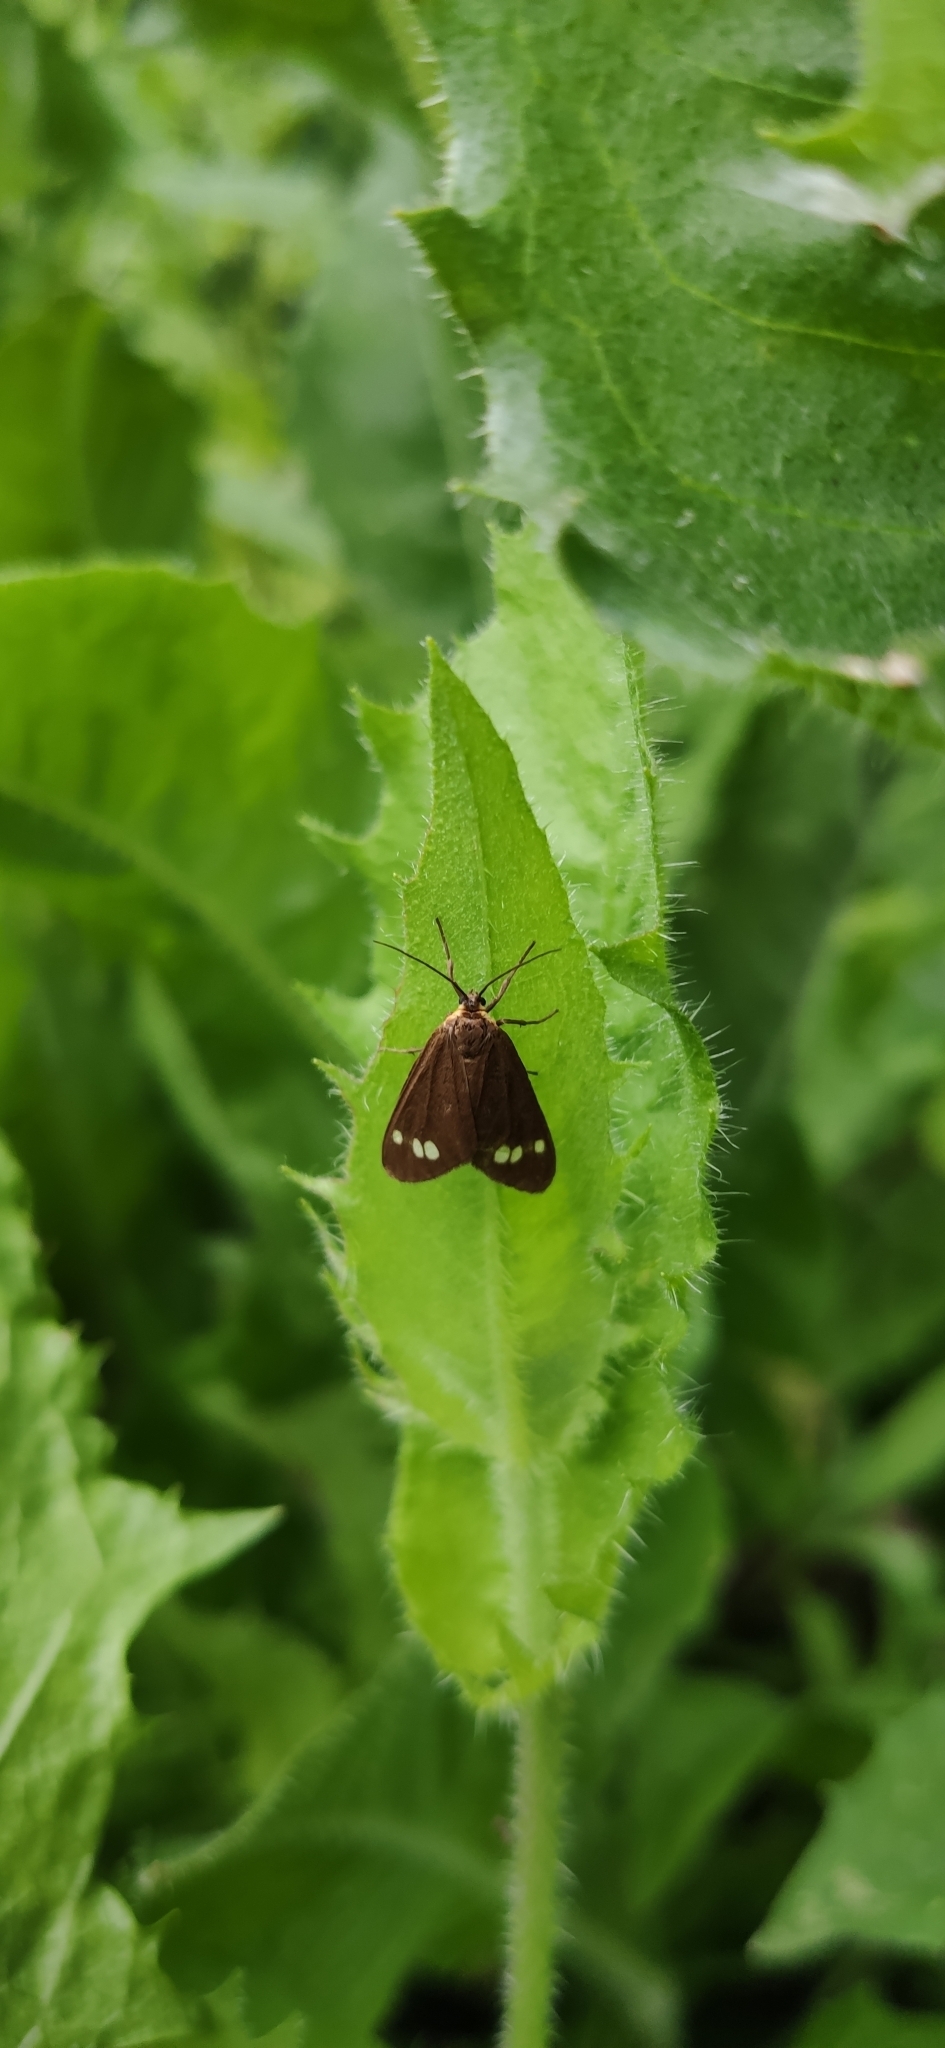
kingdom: Animalia
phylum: Arthropoda
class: Insecta
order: Lepidoptera
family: Erebidae
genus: Dysauxes
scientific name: Dysauxes ancilla
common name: The handmaid
